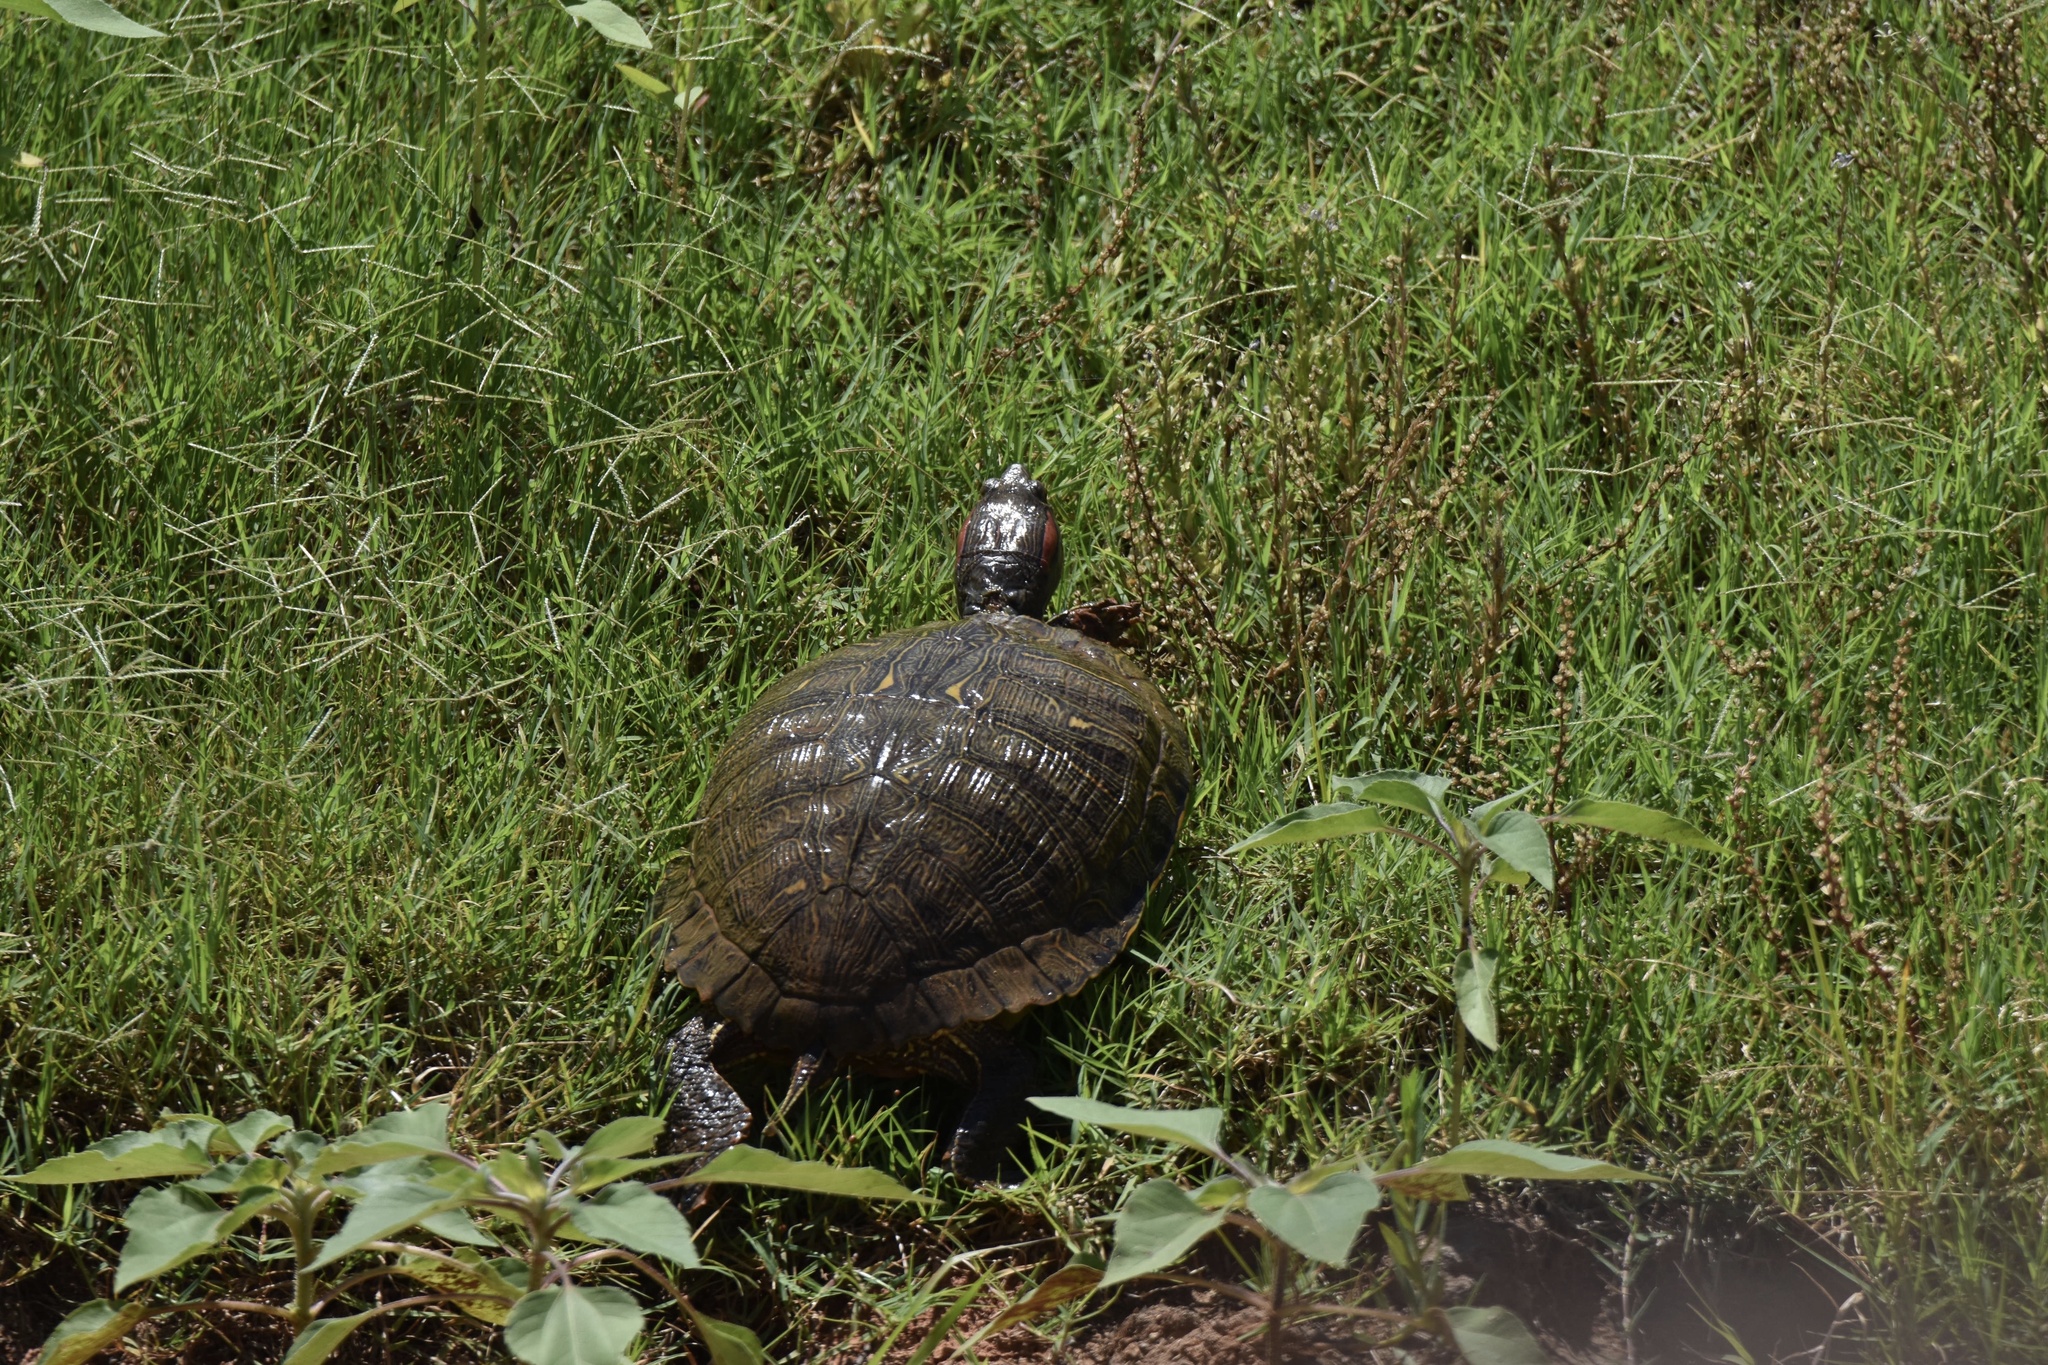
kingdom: Animalia
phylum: Chordata
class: Testudines
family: Emydidae
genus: Trachemys
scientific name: Trachemys scripta
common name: Slider
